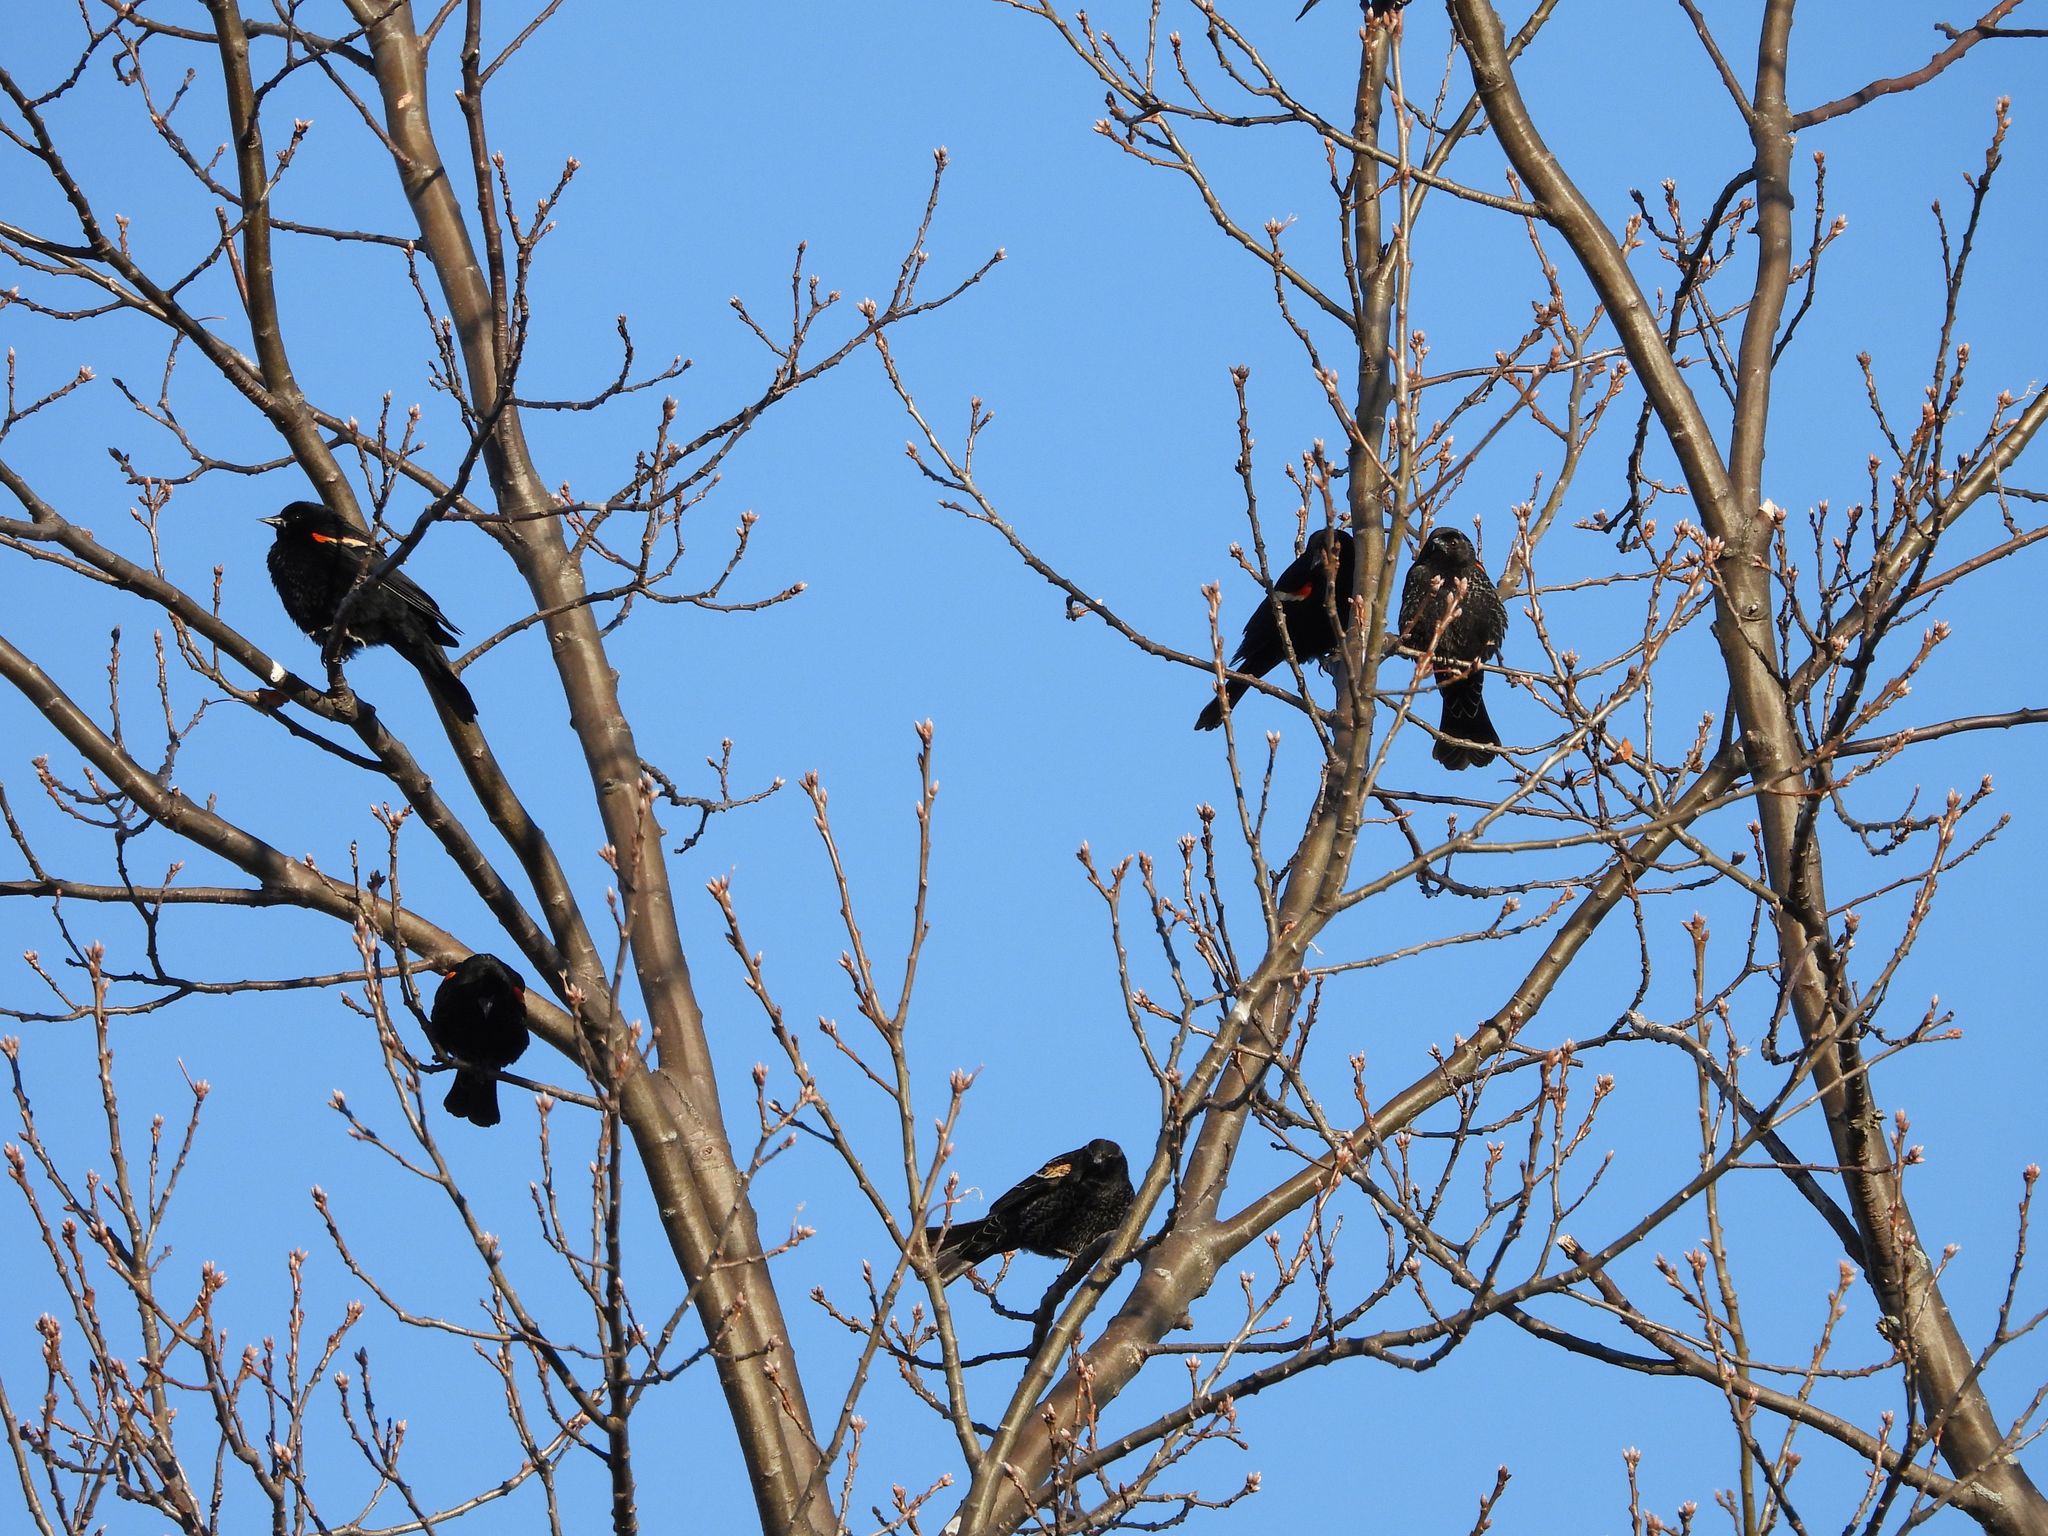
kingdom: Animalia
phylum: Chordata
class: Aves
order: Passeriformes
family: Icteridae
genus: Agelaius
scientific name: Agelaius phoeniceus
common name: Red-winged blackbird
